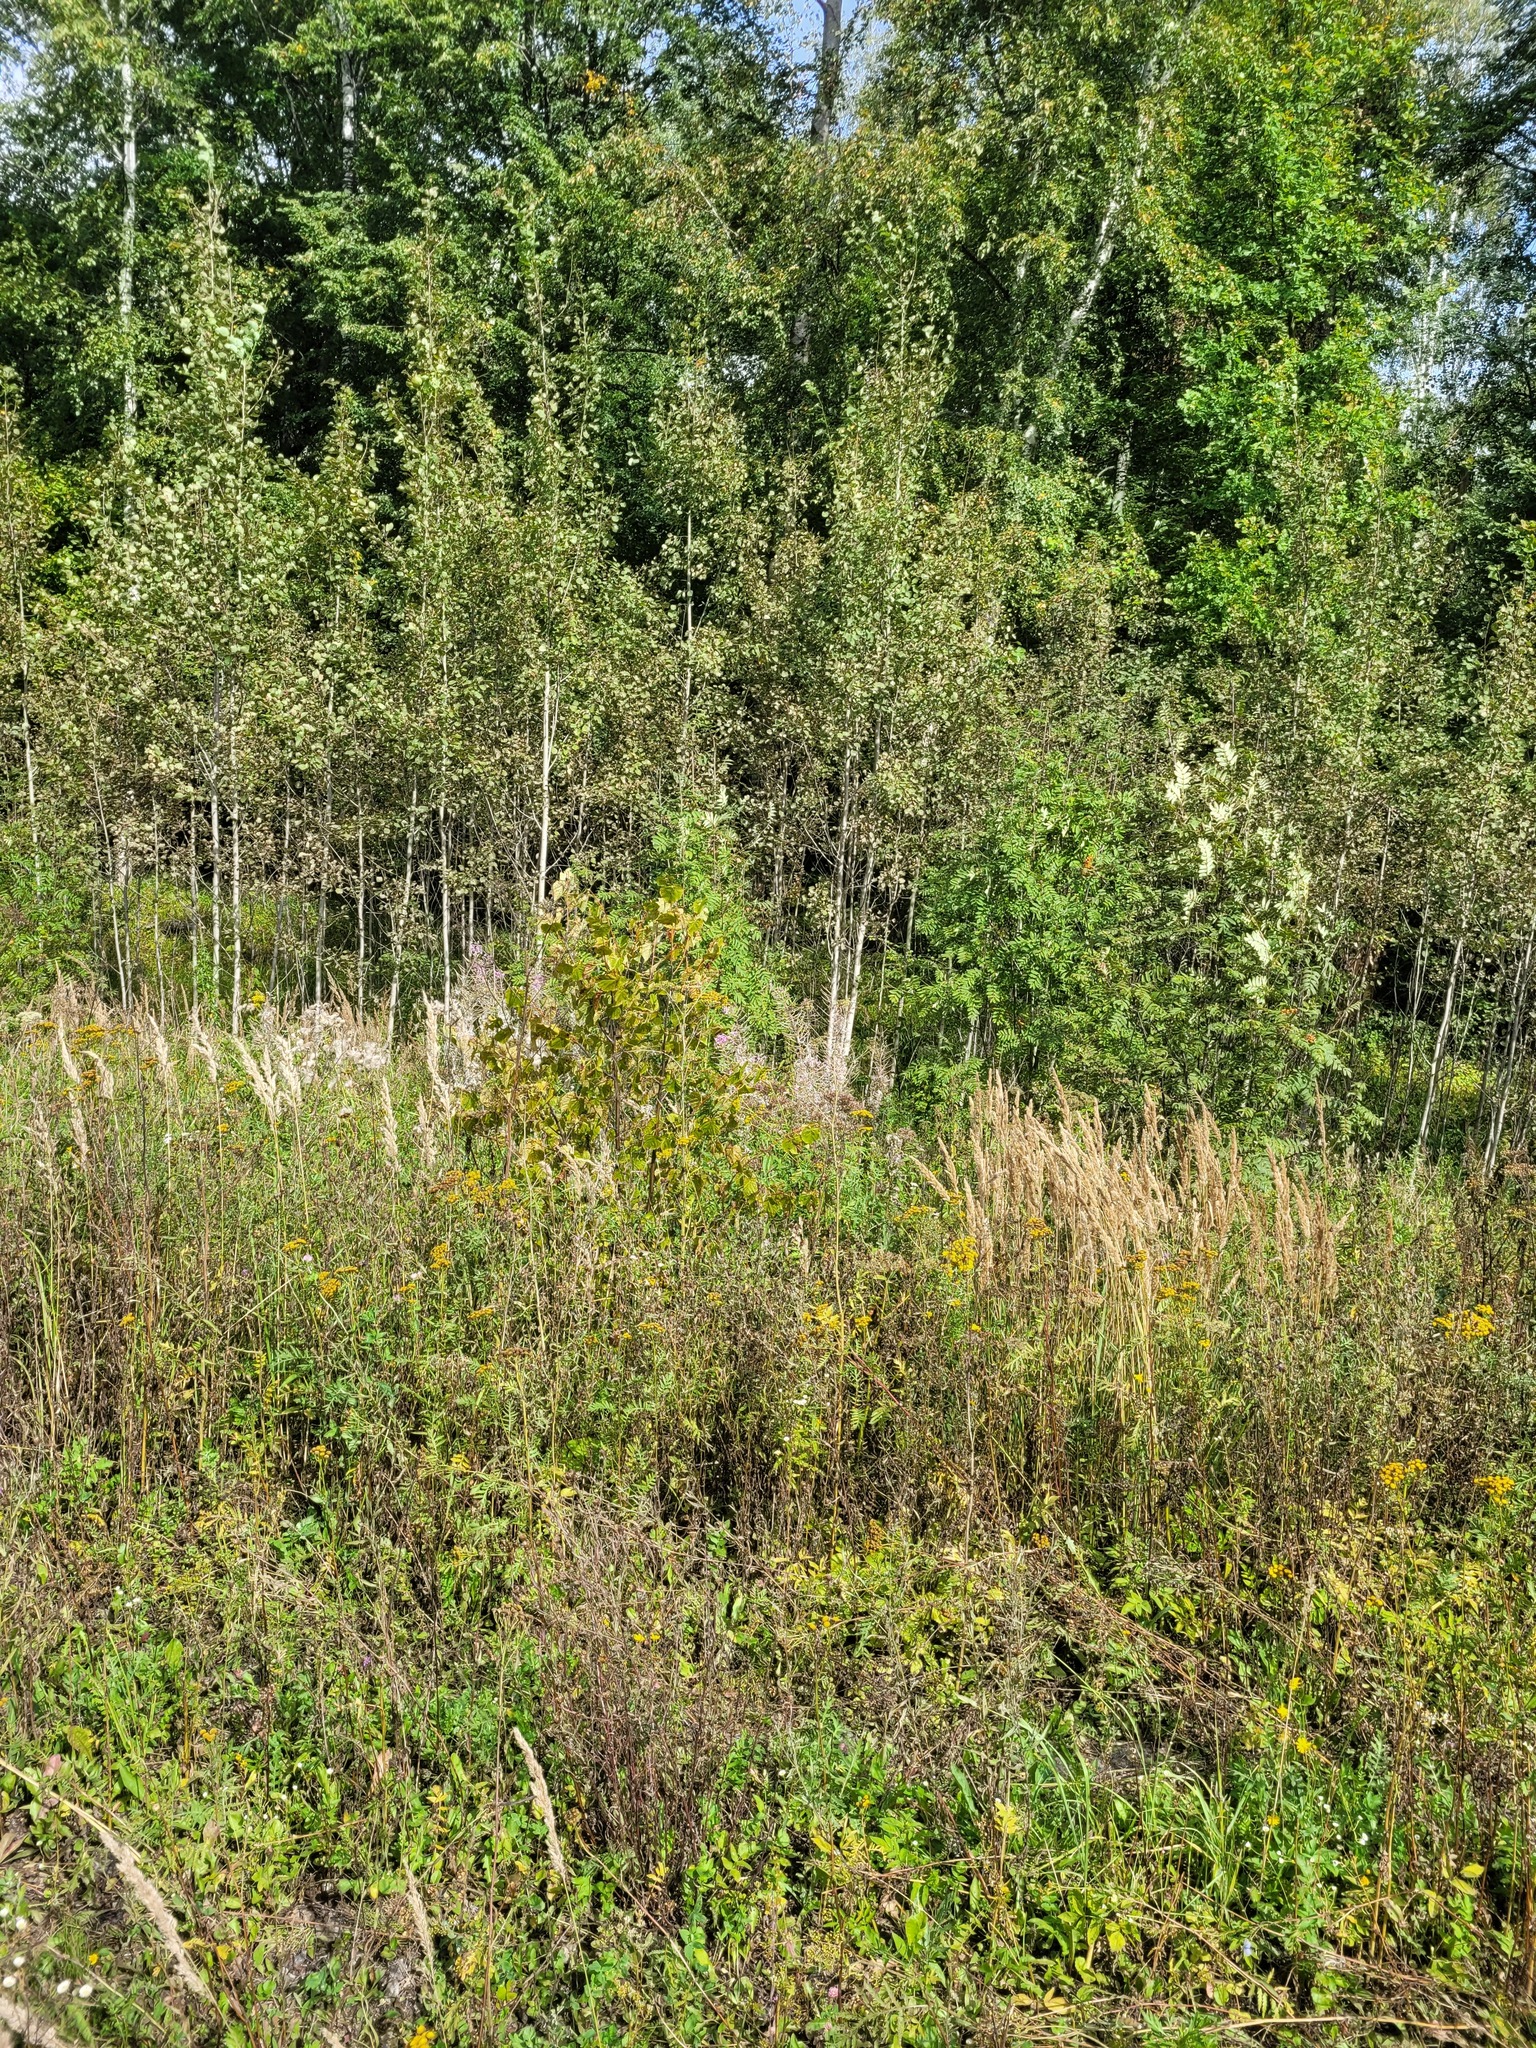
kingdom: Plantae
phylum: Tracheophyta
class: Magnoliopsida
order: Malvales
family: Malvaceae
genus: Tilia
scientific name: Tilia cordata
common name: Small-leaved lime
